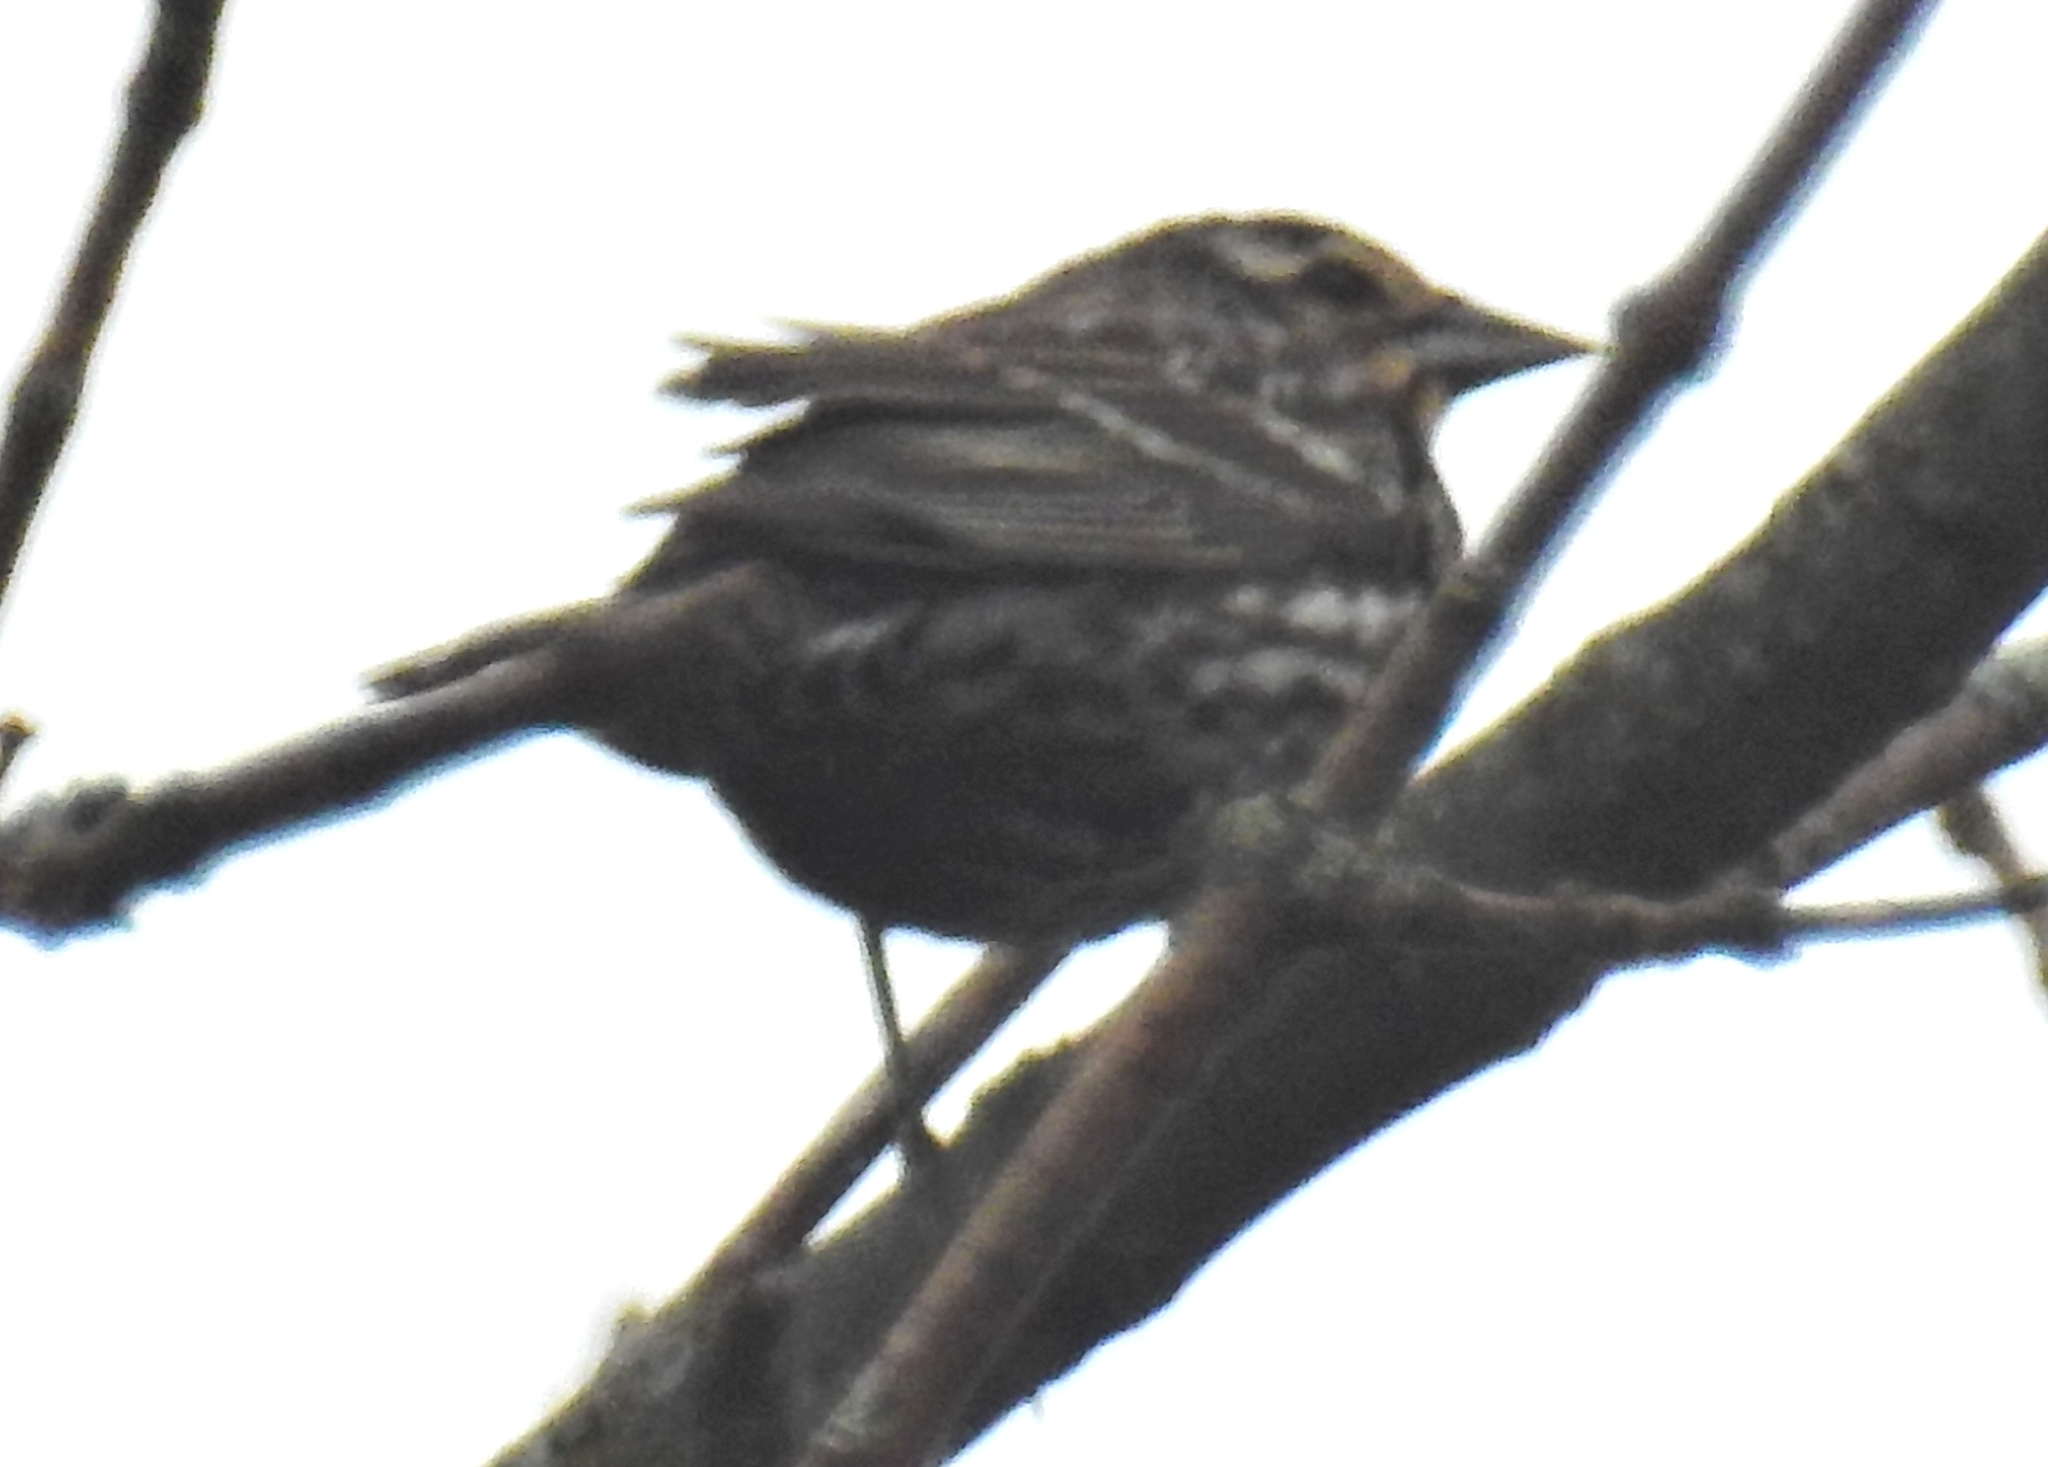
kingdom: Animalia
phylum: Chordata
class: Aves
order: Passeriformes
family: Icteridae
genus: Agelaius
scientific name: Agelaius phoeniceus
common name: Red-winged blackbird
